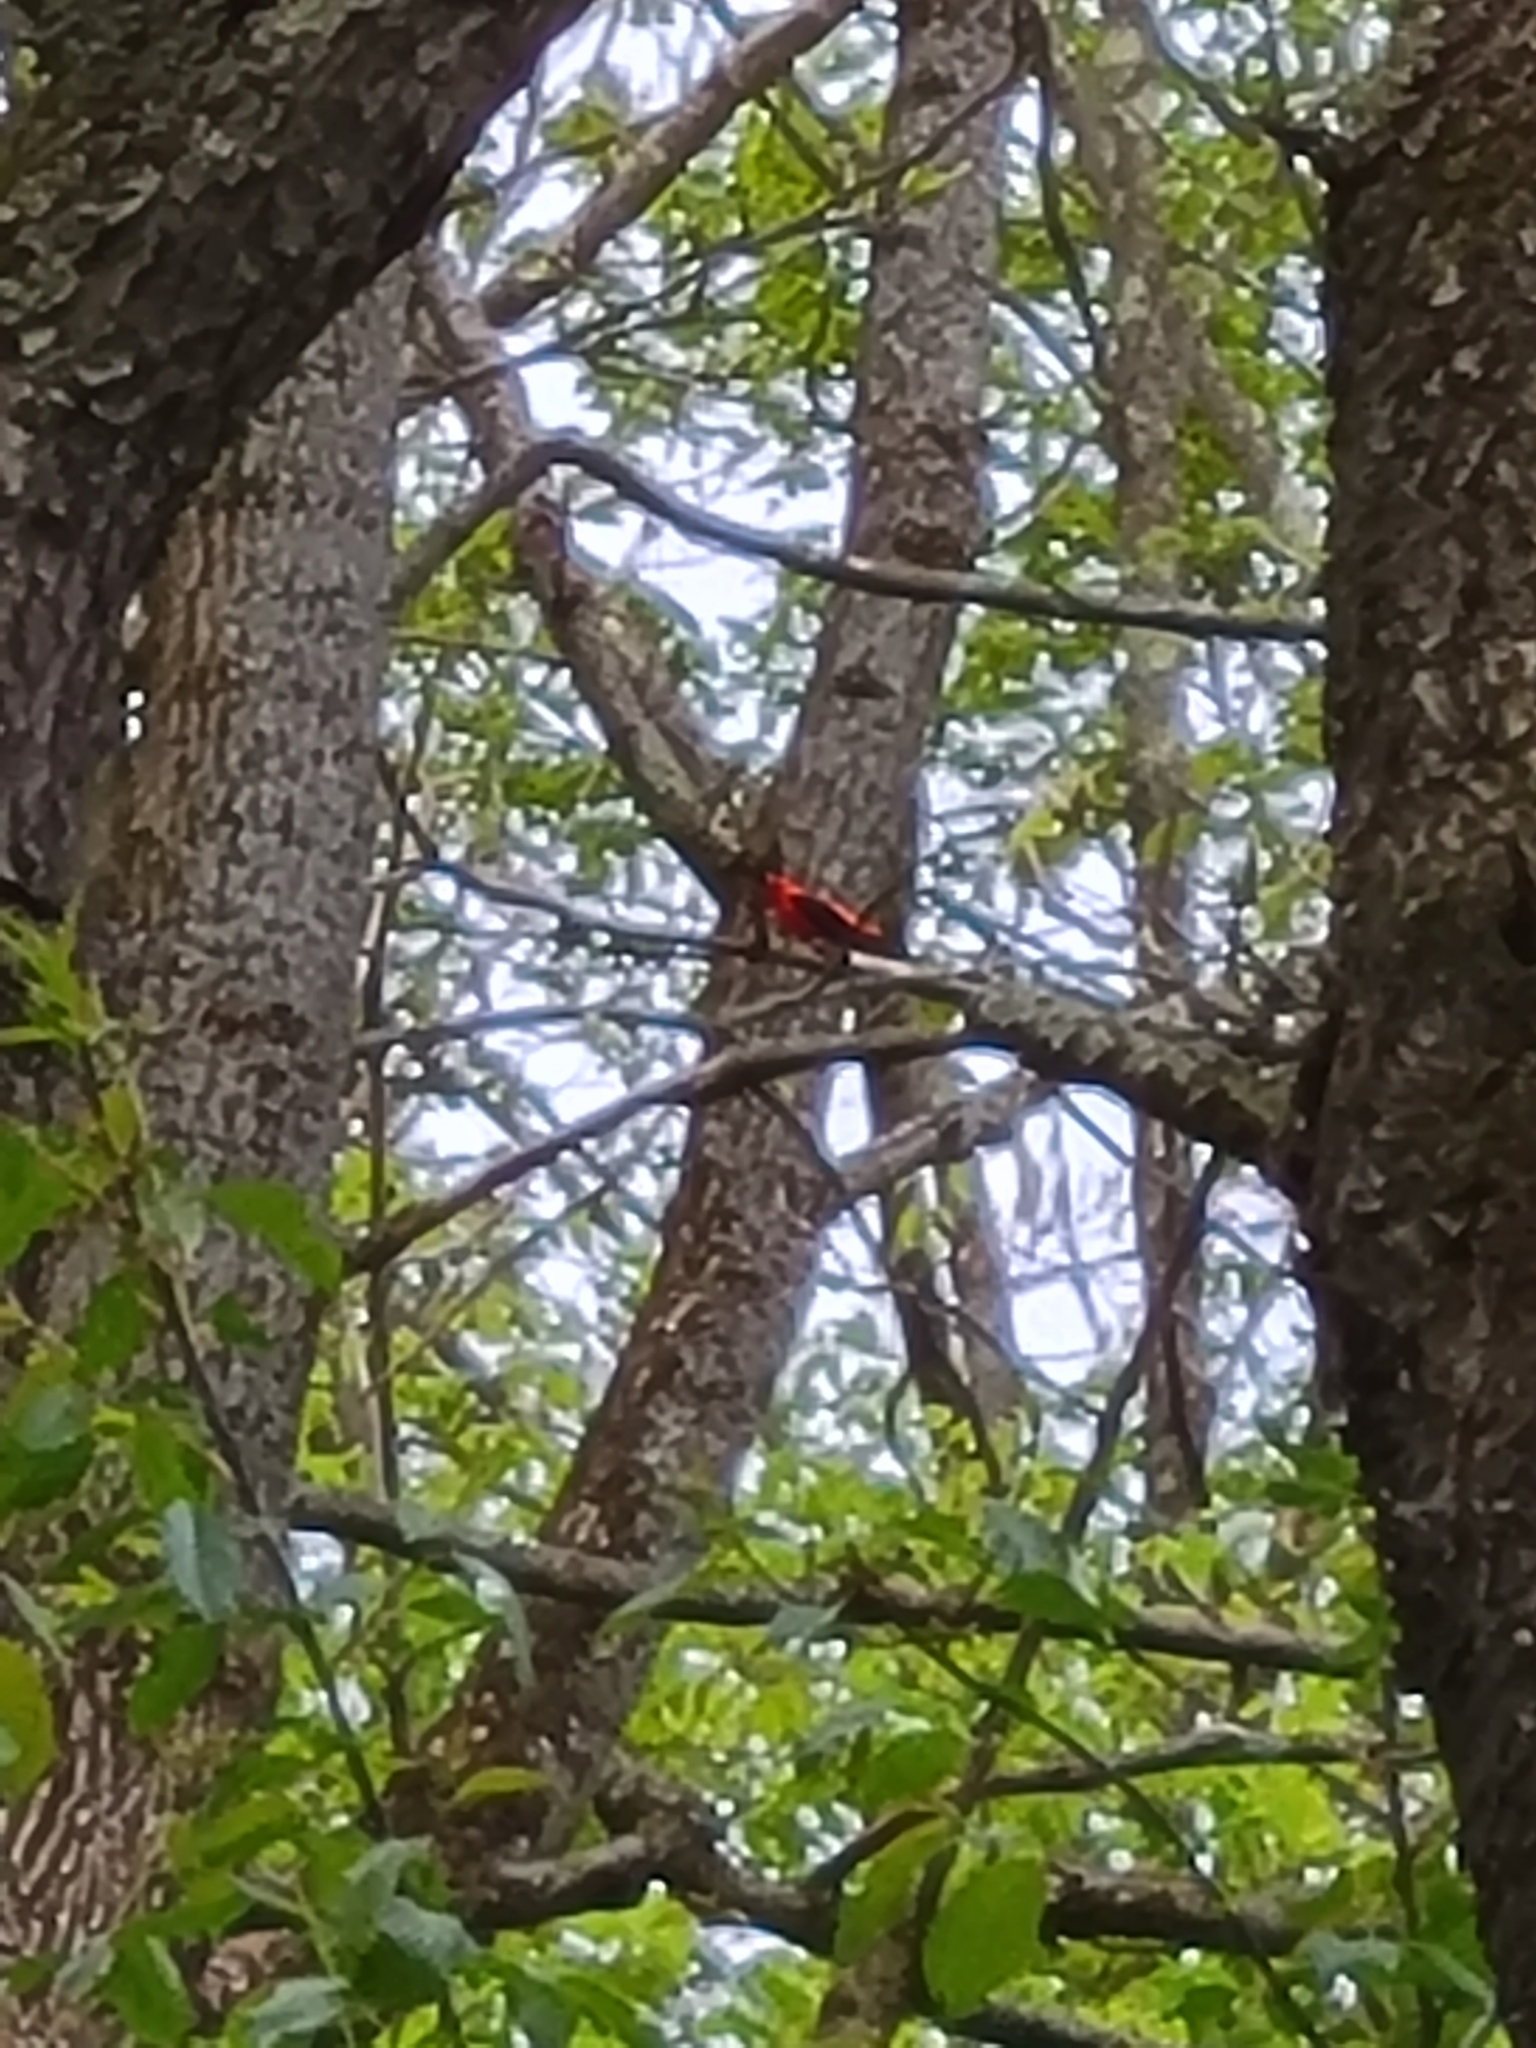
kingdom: Animalia
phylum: Chordata
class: Aves
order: Passeriformes
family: Cardinalidae
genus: Piranga
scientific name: Piranga olivacea
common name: Scarlet tanager
